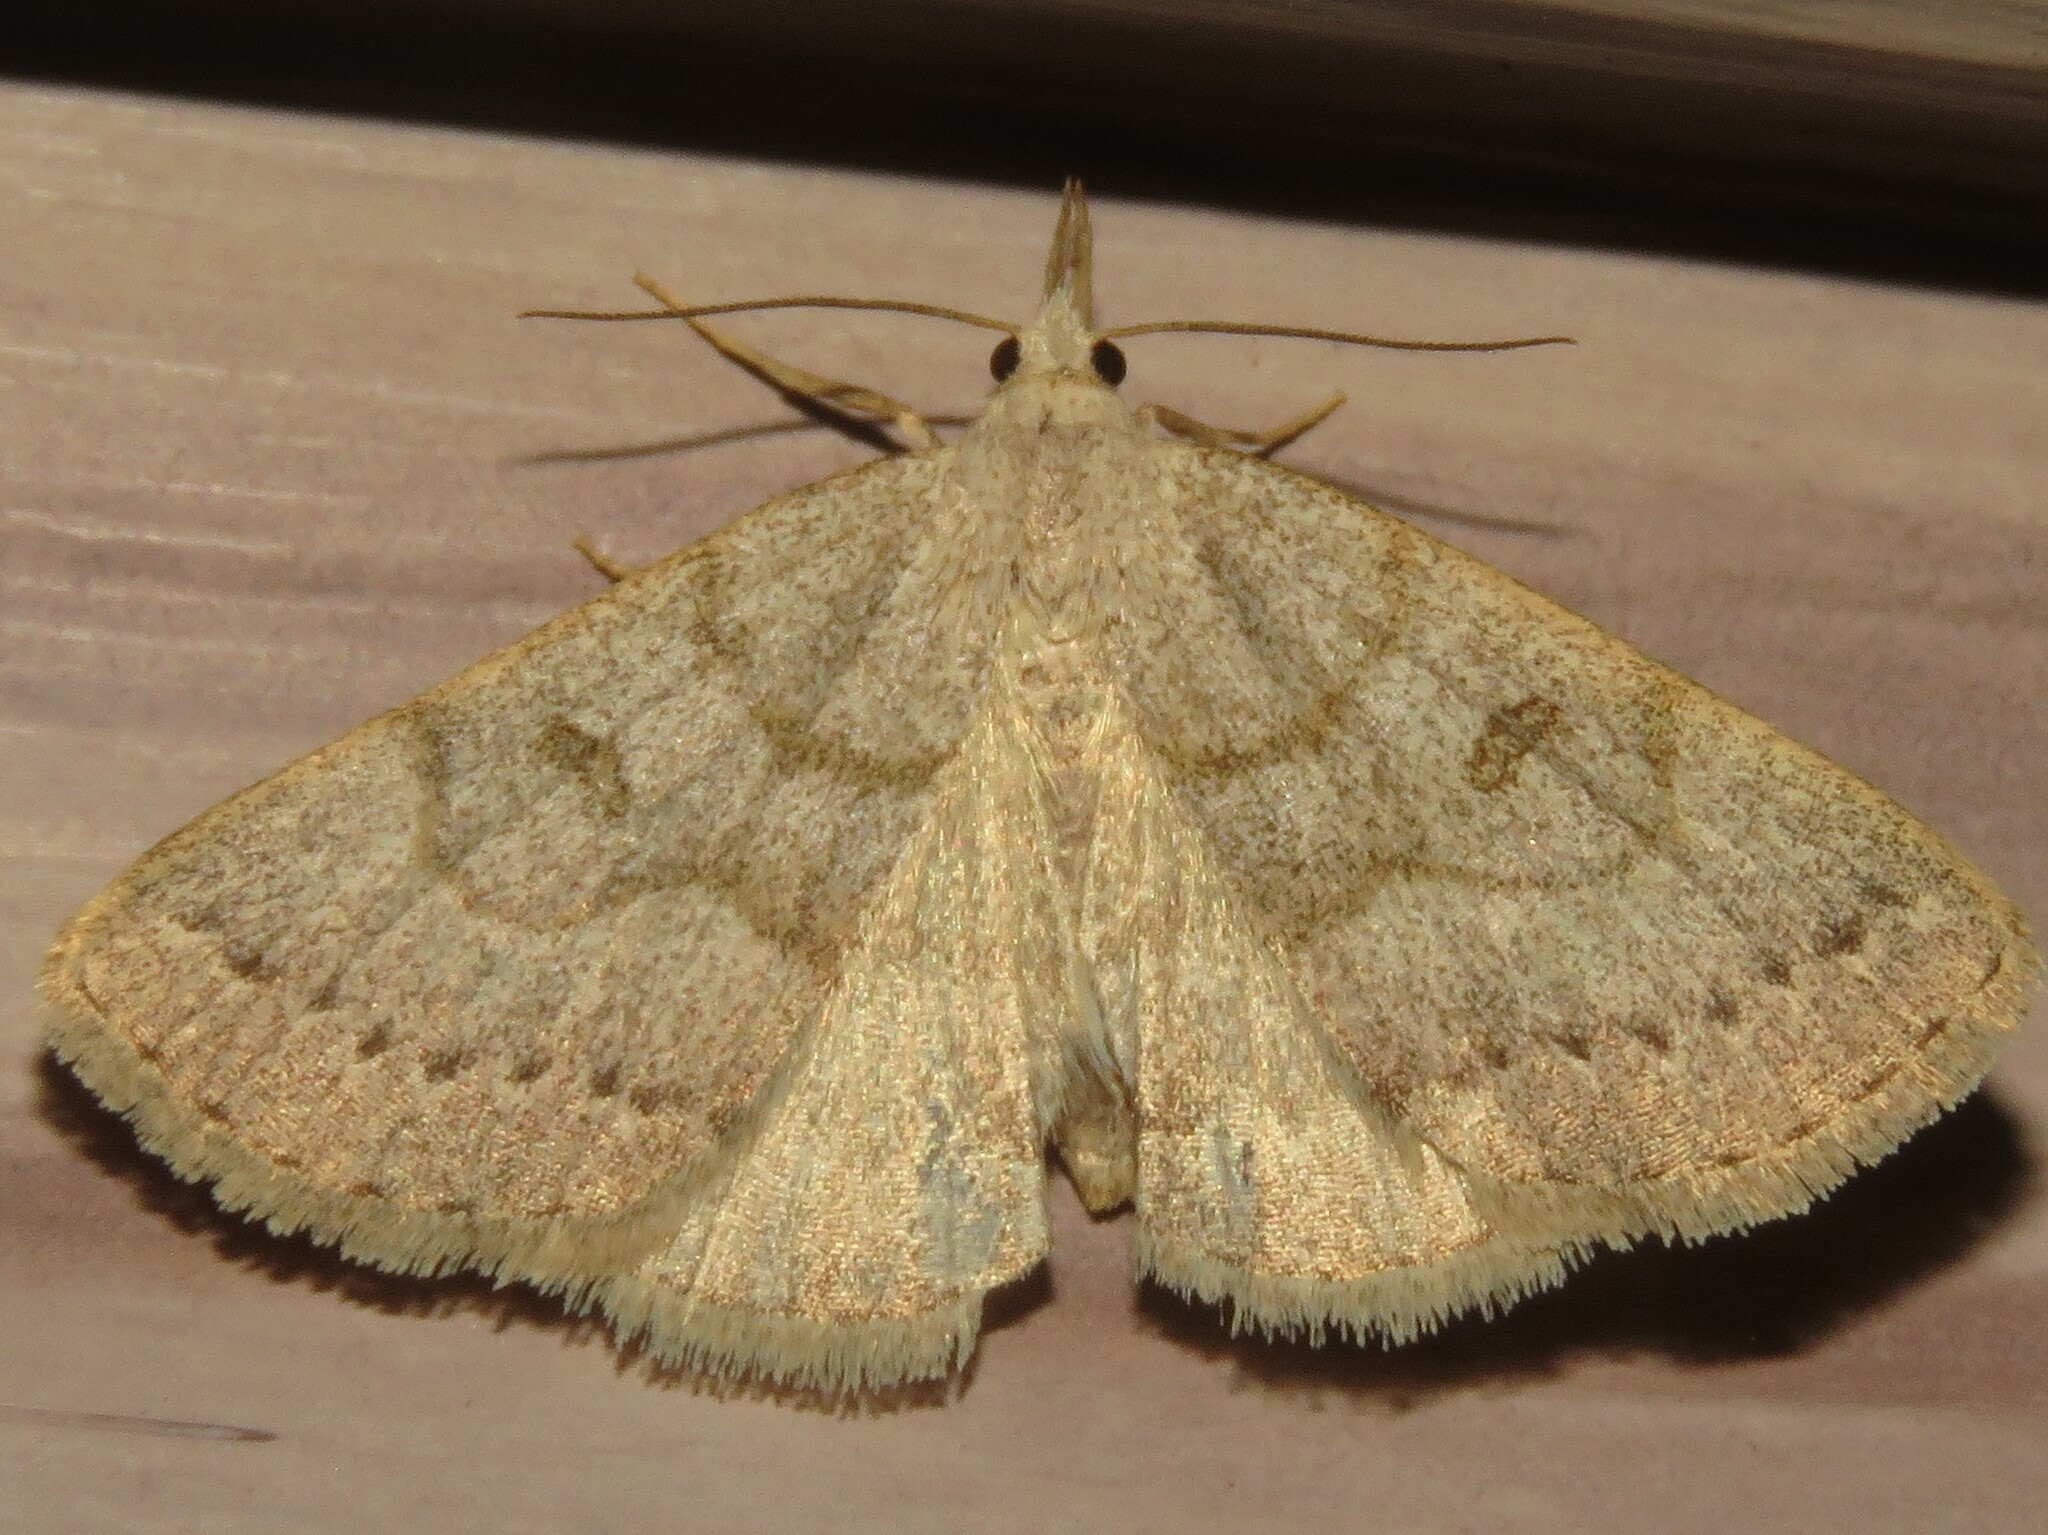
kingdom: Animalia
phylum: Arthropoda
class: Insecta
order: Lepidoptera
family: Erebidae
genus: Macrochilo
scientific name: Macrochilo morbidalis
